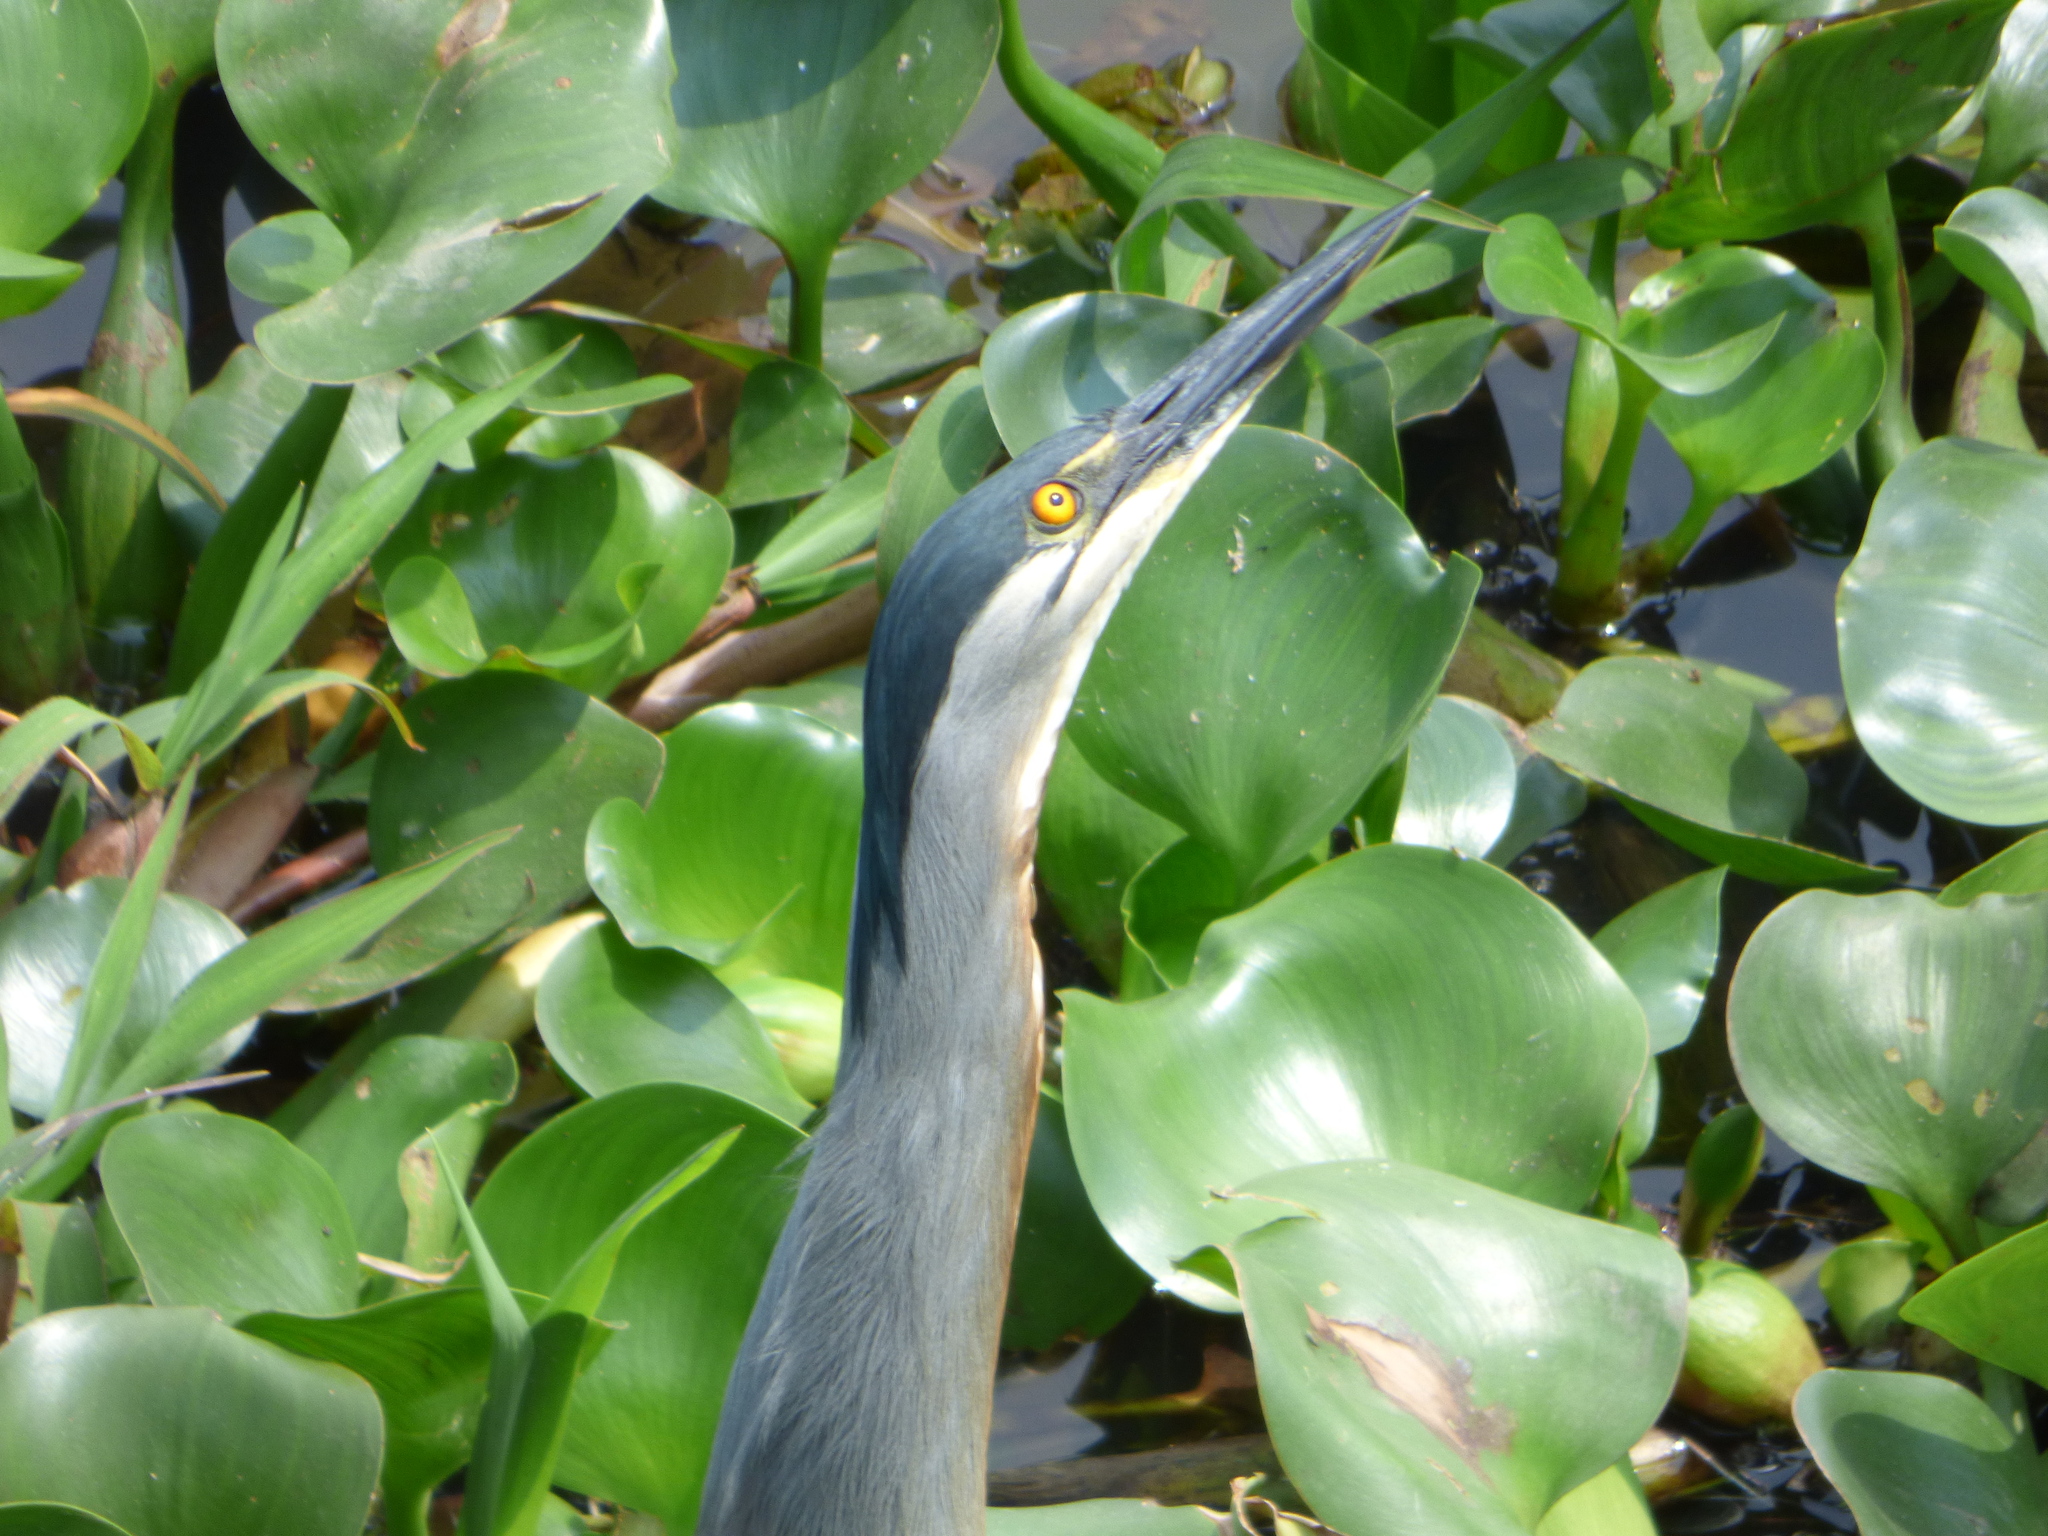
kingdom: Animalia
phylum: Chordata
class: Aves
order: Pelecaniformes
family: Ardeidae
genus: Butorides
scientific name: Butorides striata
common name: Striated heron
